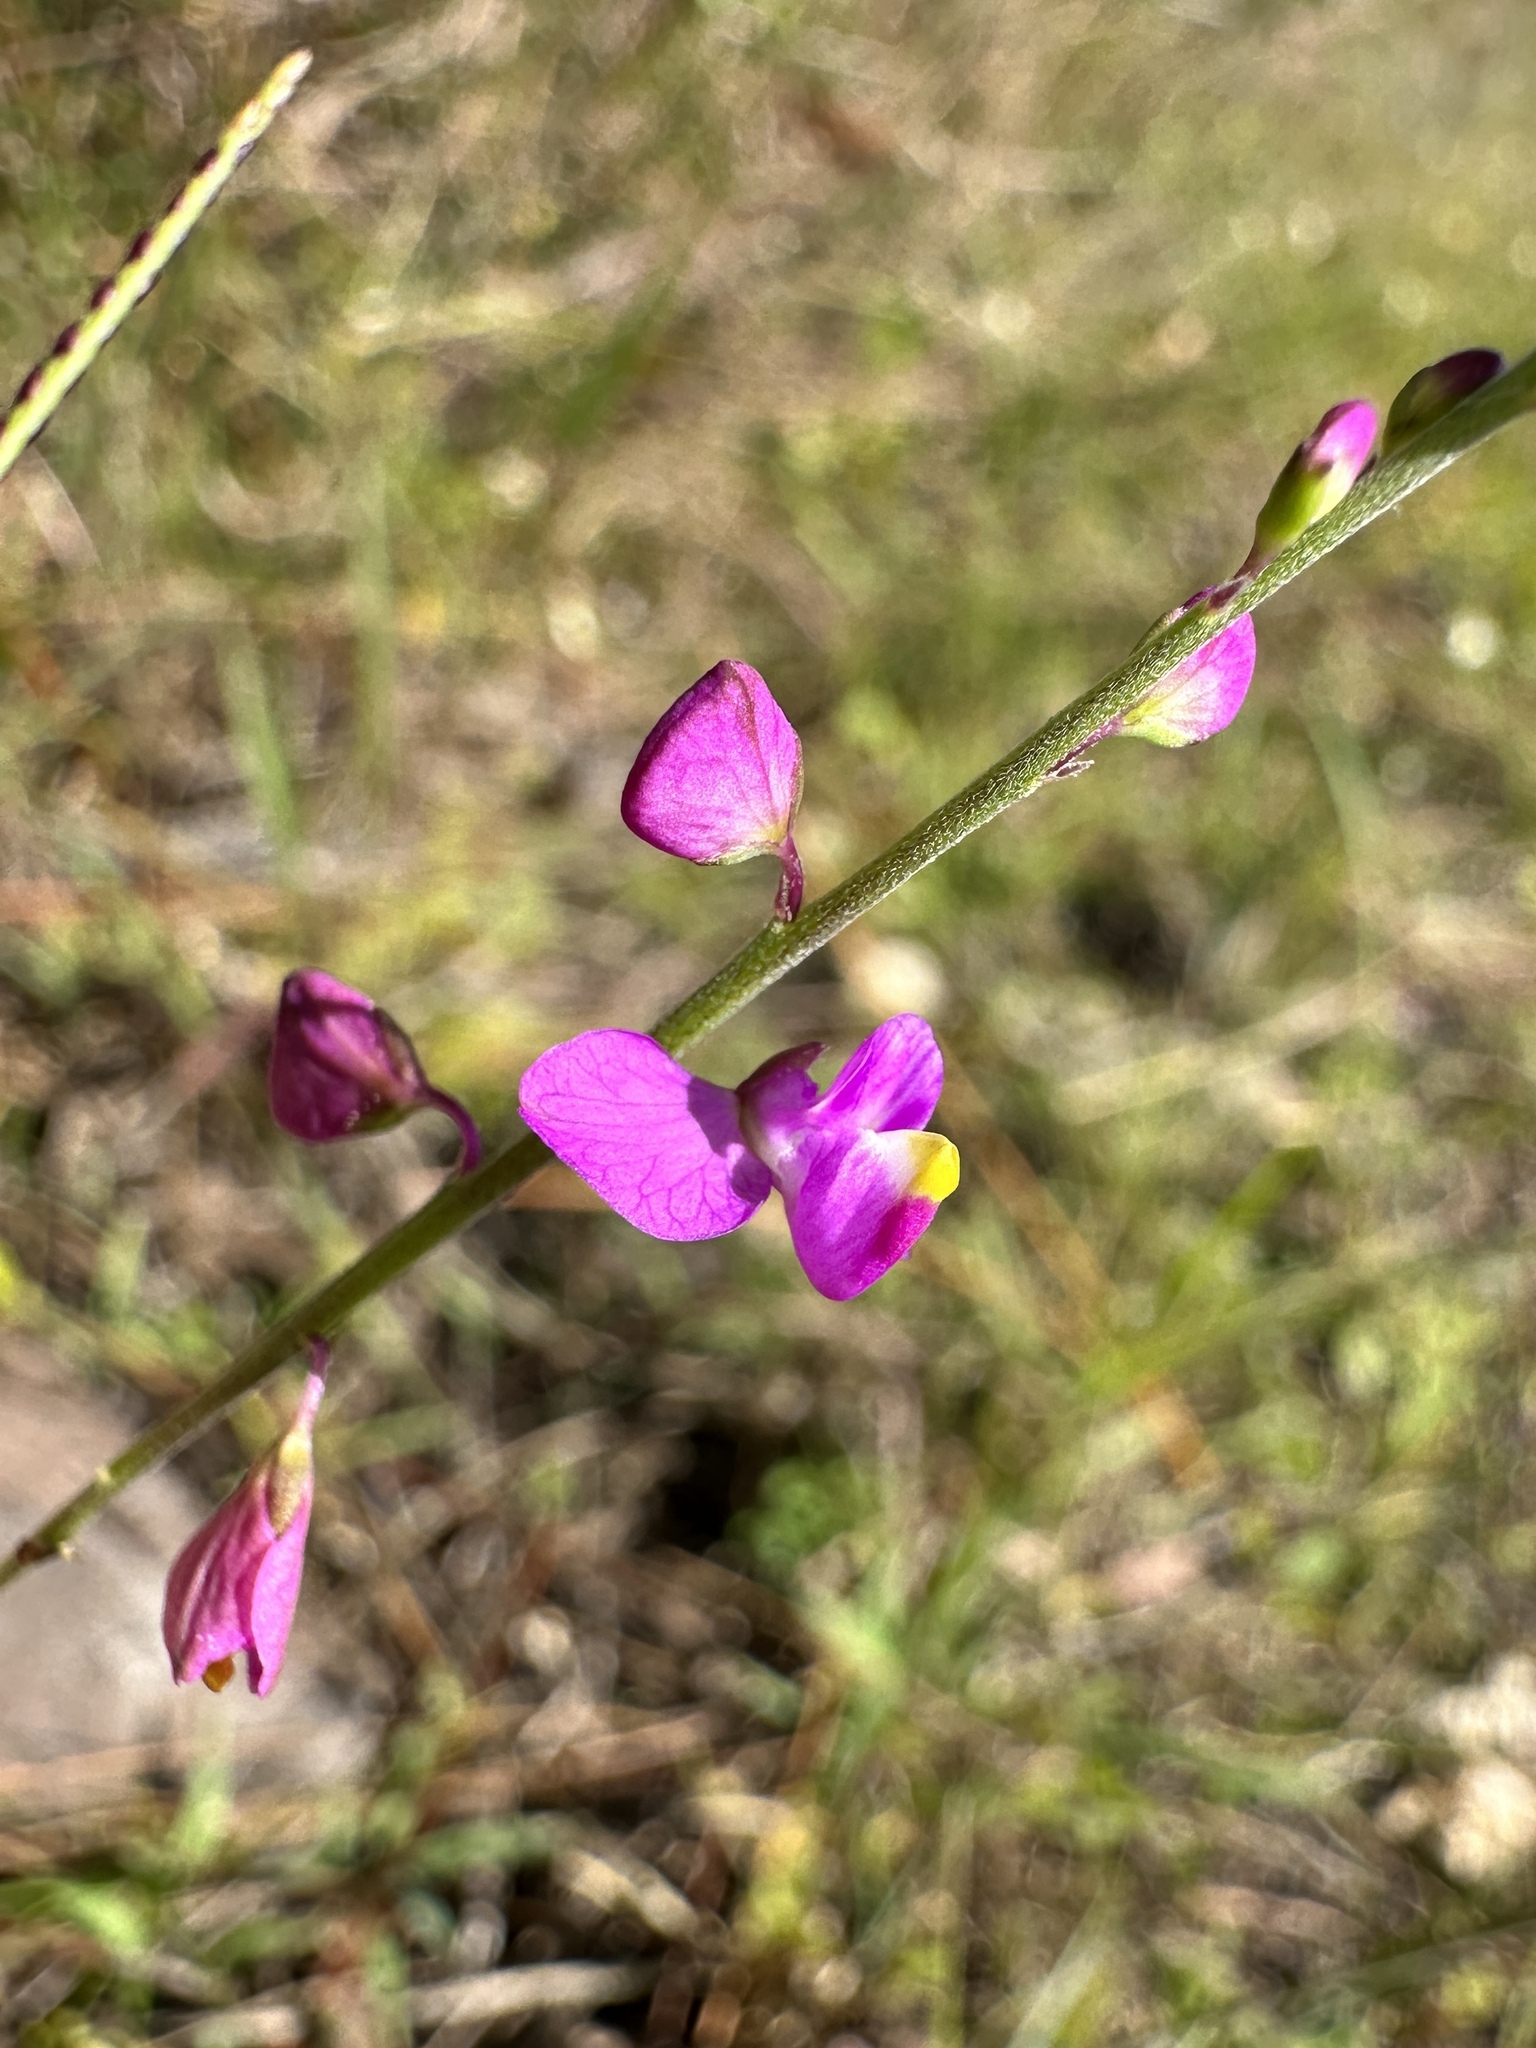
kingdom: Plantae
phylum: Tracheophyta
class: Magnoliopsida
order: Fabales
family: Polygalaceae
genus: Asemeia
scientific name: Asemeia grandiflora
